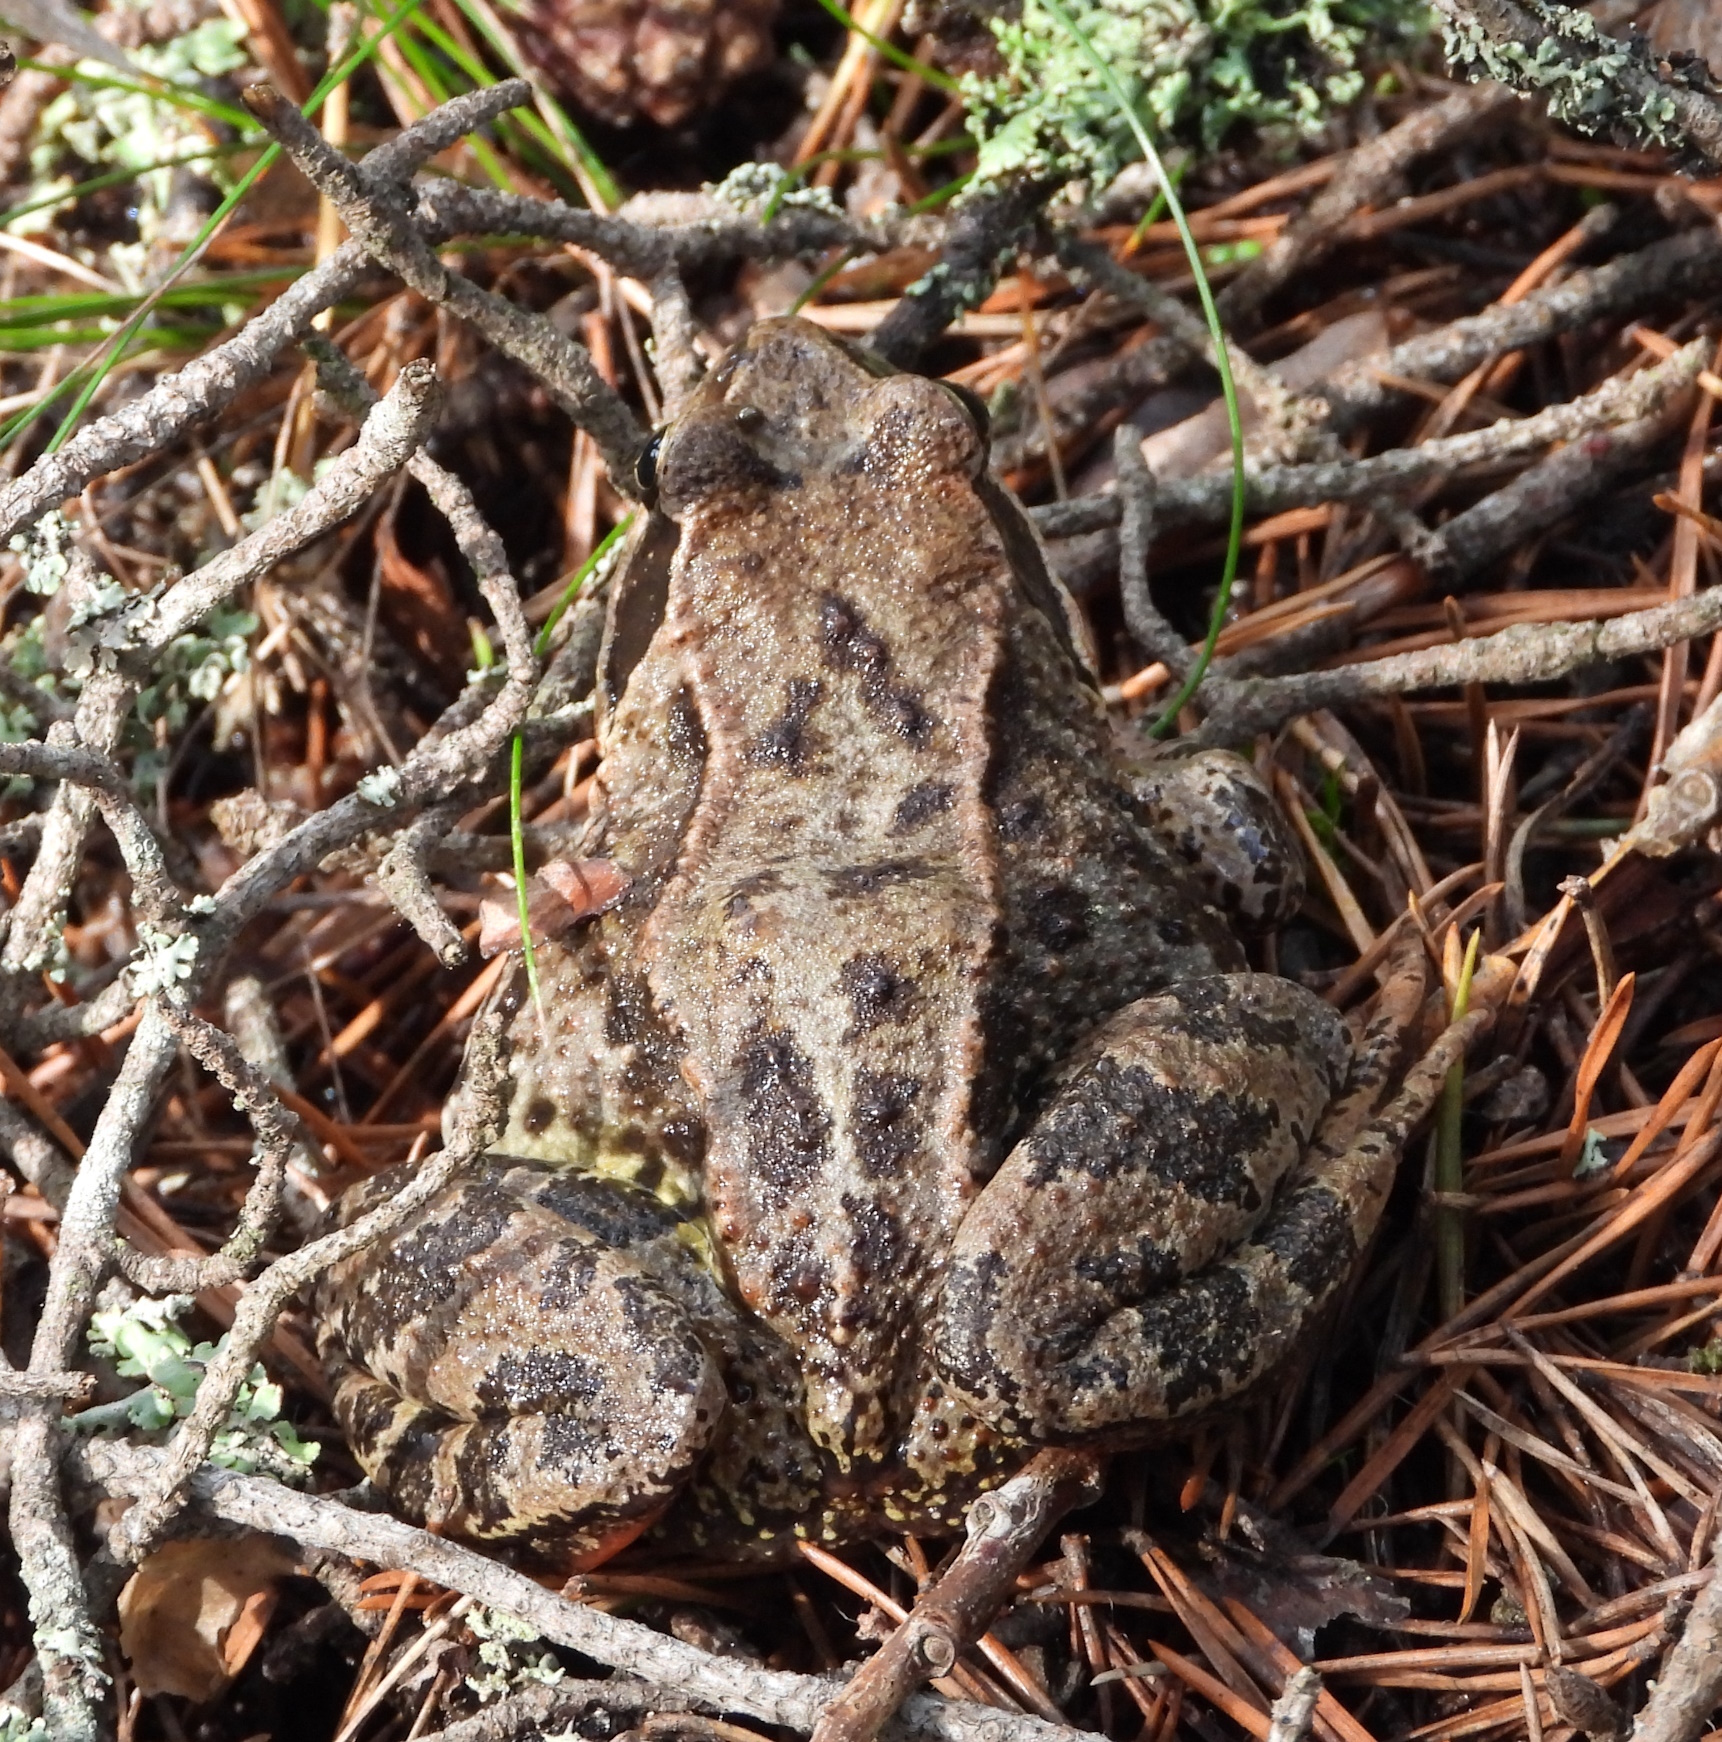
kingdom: Animalia
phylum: Chordata
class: Amphibia
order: Anura
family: Ranidae
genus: Rana
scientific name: Rana temporaria
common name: Common frog
